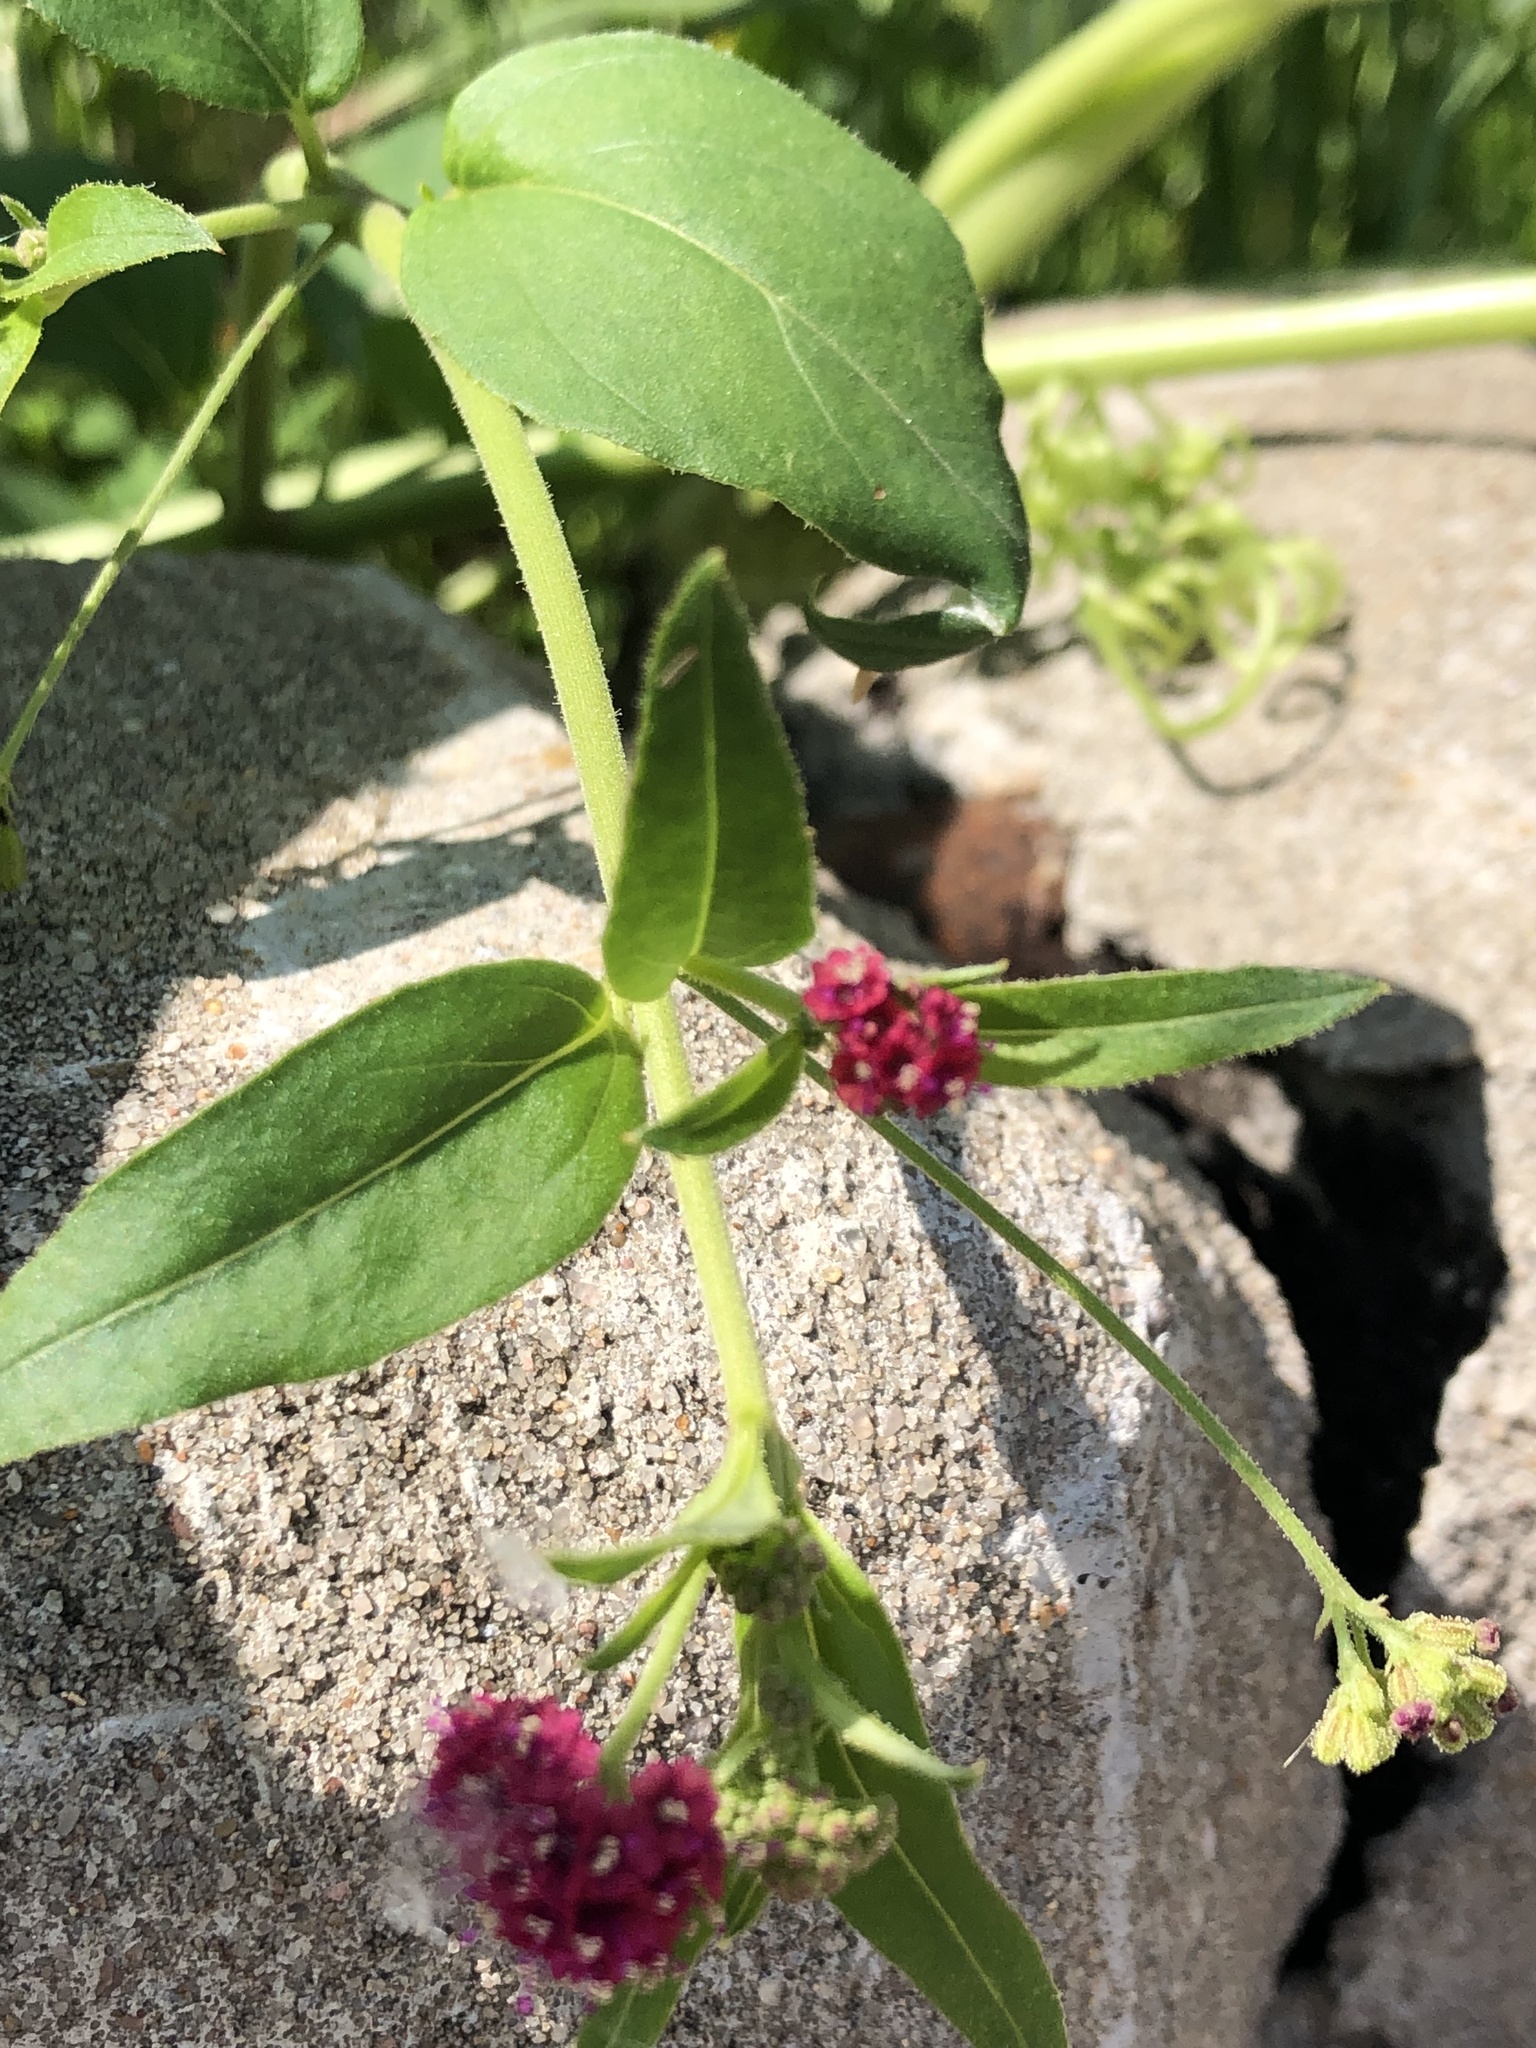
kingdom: Plantae
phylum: Tracheophyta
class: Magnoliopsida
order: Caryophyllales
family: Nyctaginaceae
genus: Boerhavia
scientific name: Boerhavia coccinea
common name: Scarlet spiderling
